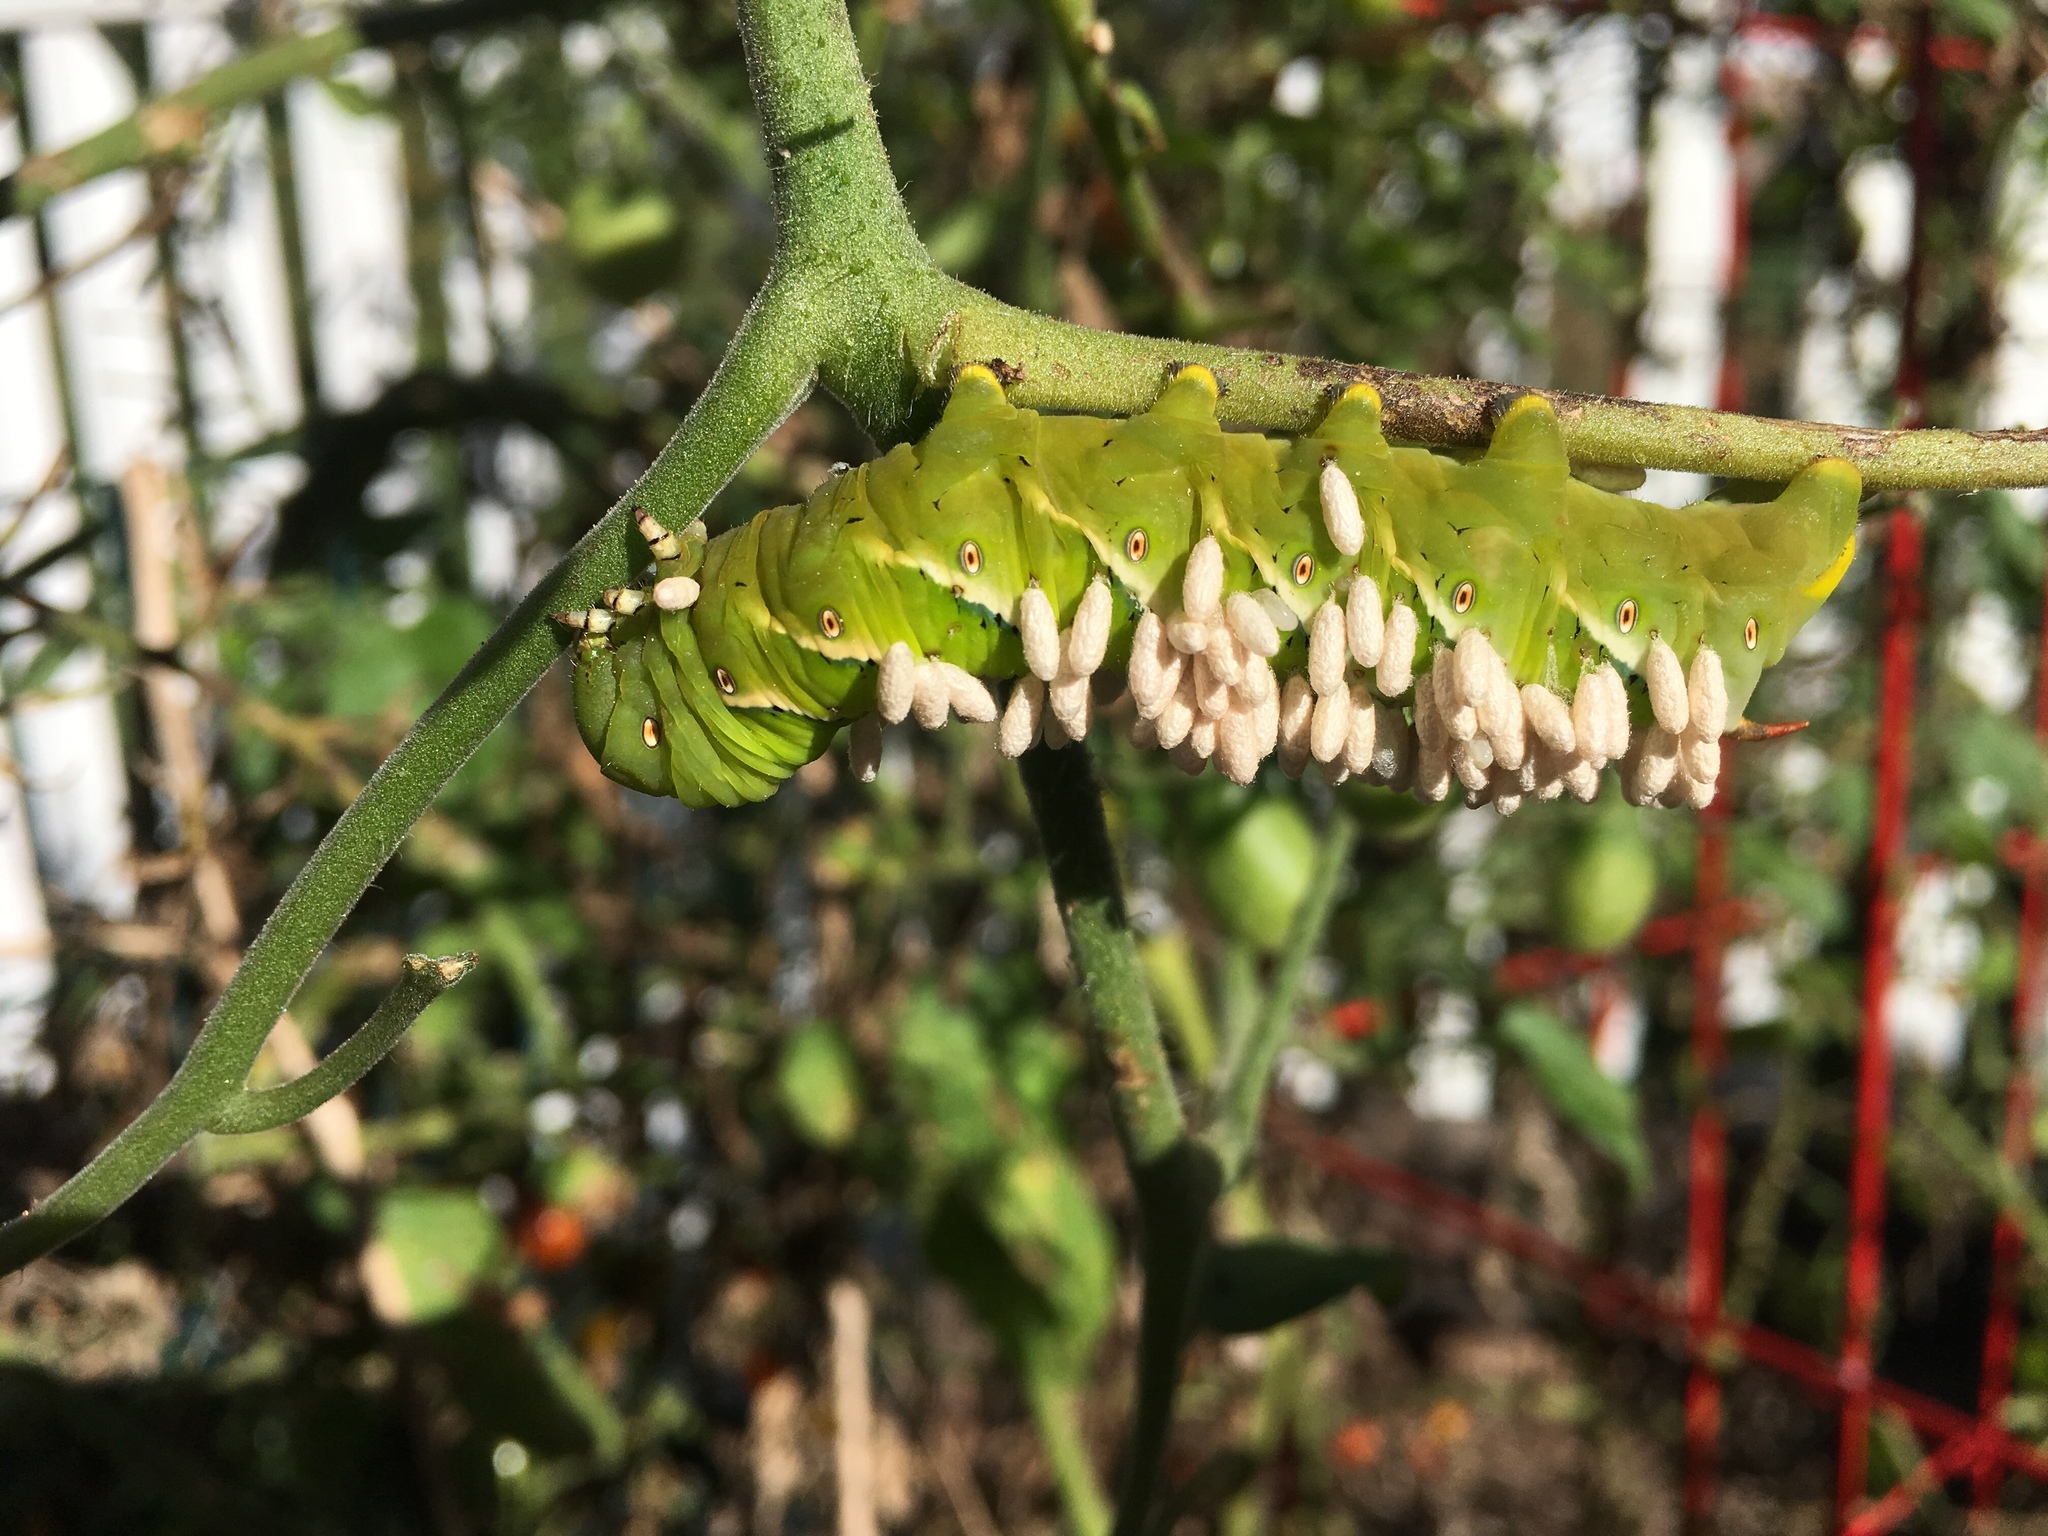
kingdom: Animalia
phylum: Arthropoda
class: Insecta
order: Lepidoptera
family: Sphingidae
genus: Manduca
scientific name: Manduca sexta
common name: Carolina sphinx
